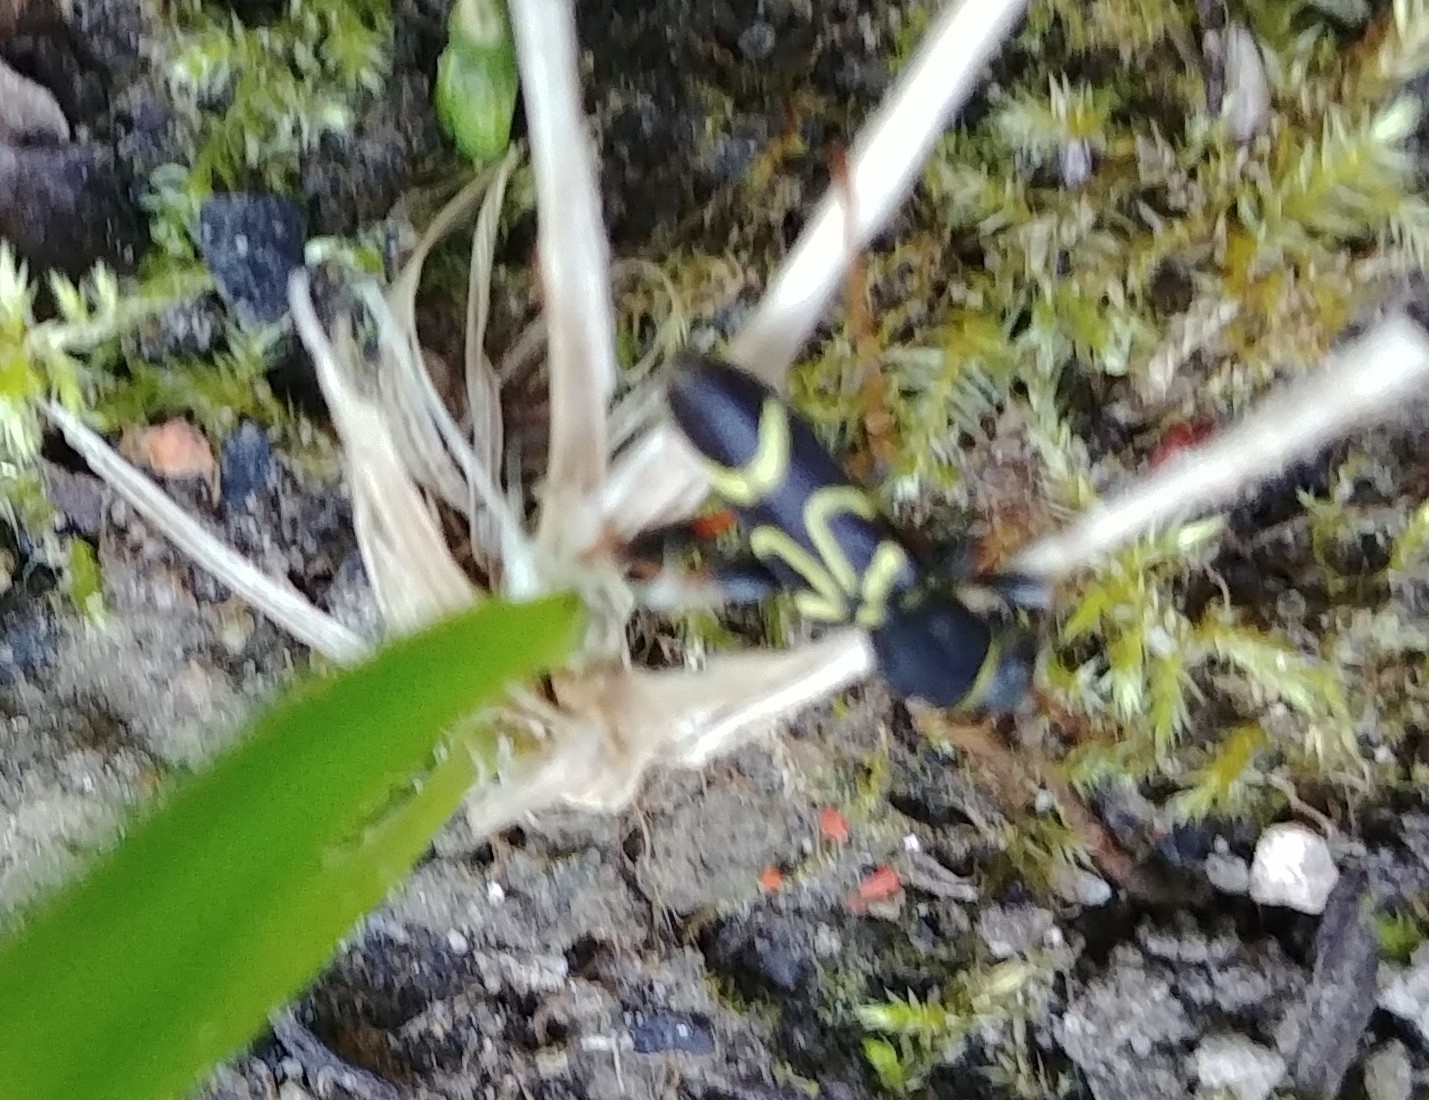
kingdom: Animalia
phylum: Arthropoda
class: Insecta
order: Coleoptera
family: Cerambycidae
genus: Clytus
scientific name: Clytus ruricola
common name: Round-necked longhorn beetle
